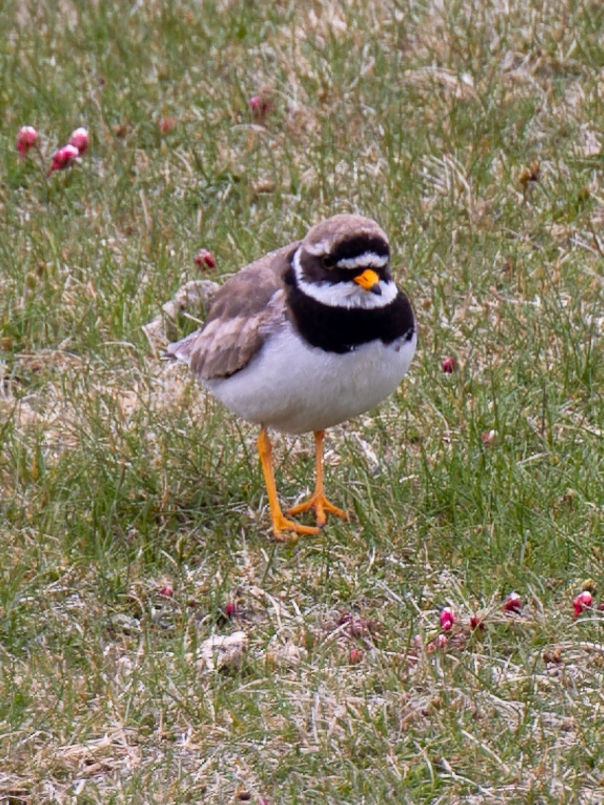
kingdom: Animalia
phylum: Chordata
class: Aves
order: Charadriiformes
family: Charadriidae
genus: Charadrius
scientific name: Charadrius hiaticula
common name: Common ringed plover
